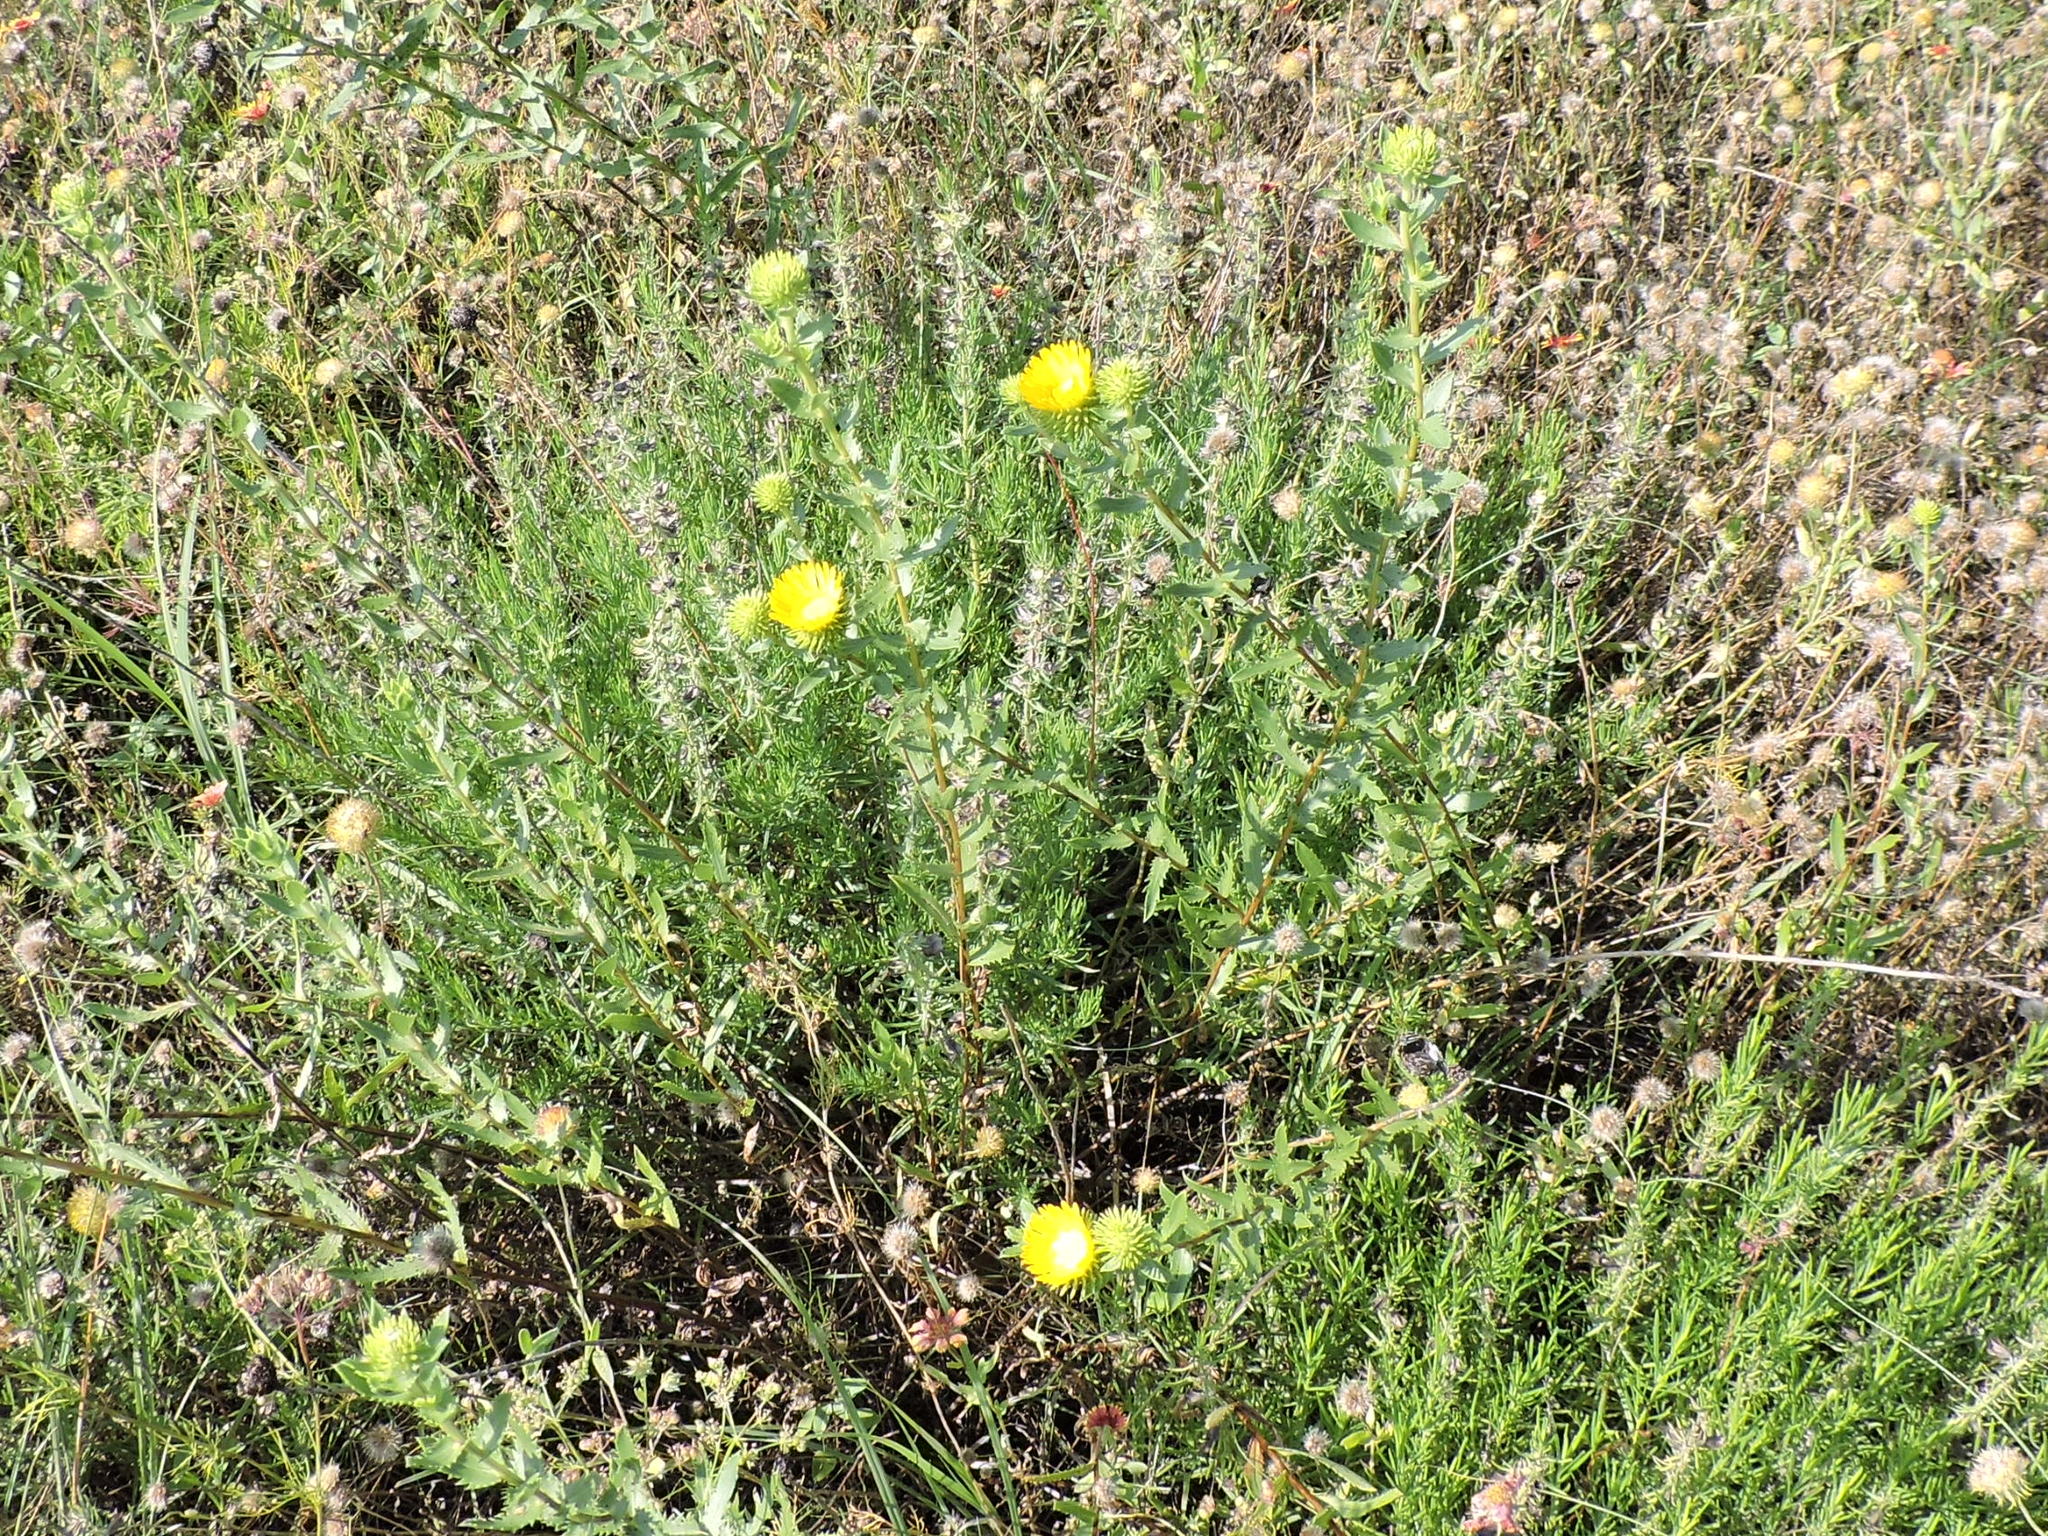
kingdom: Plantae
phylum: Tracheophyta
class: Magnoliopsida
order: Asterales
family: Asteraceae
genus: Grindelia
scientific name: Grindelia lanceolata
